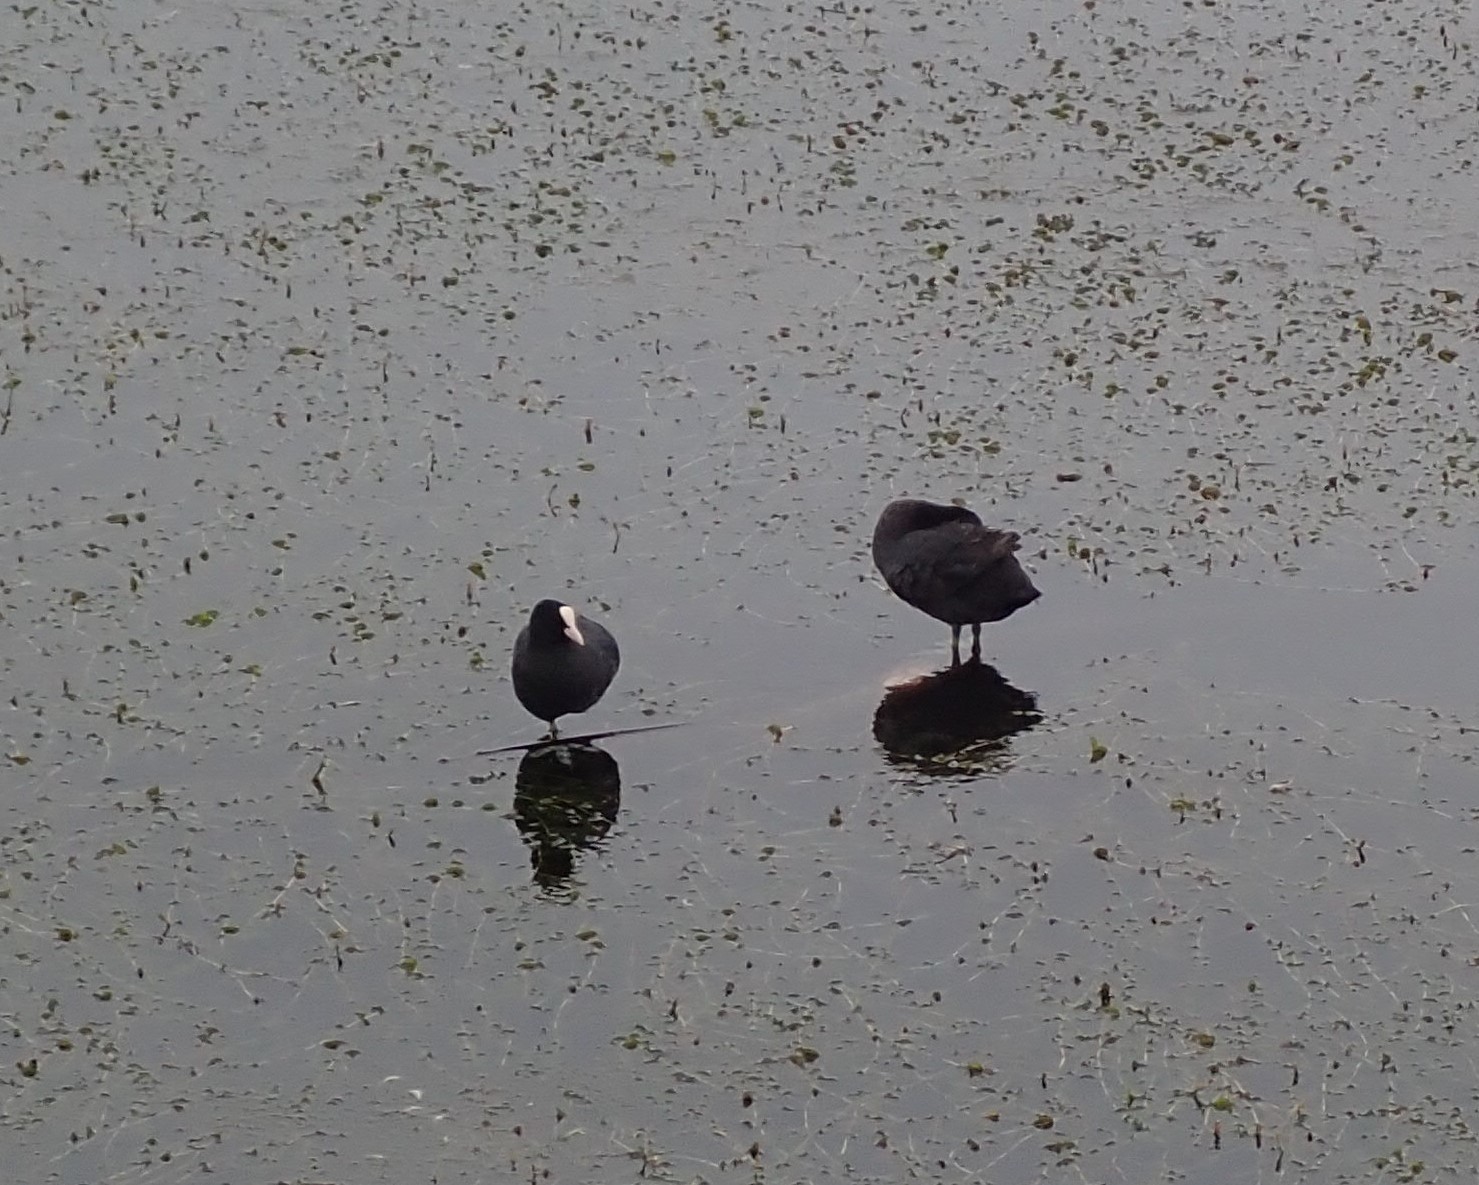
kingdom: Animalia
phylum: Chordata
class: Aves
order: Gruiformes
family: Rallidae
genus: Fulica
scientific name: Fulica atra
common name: Eurasian coot
